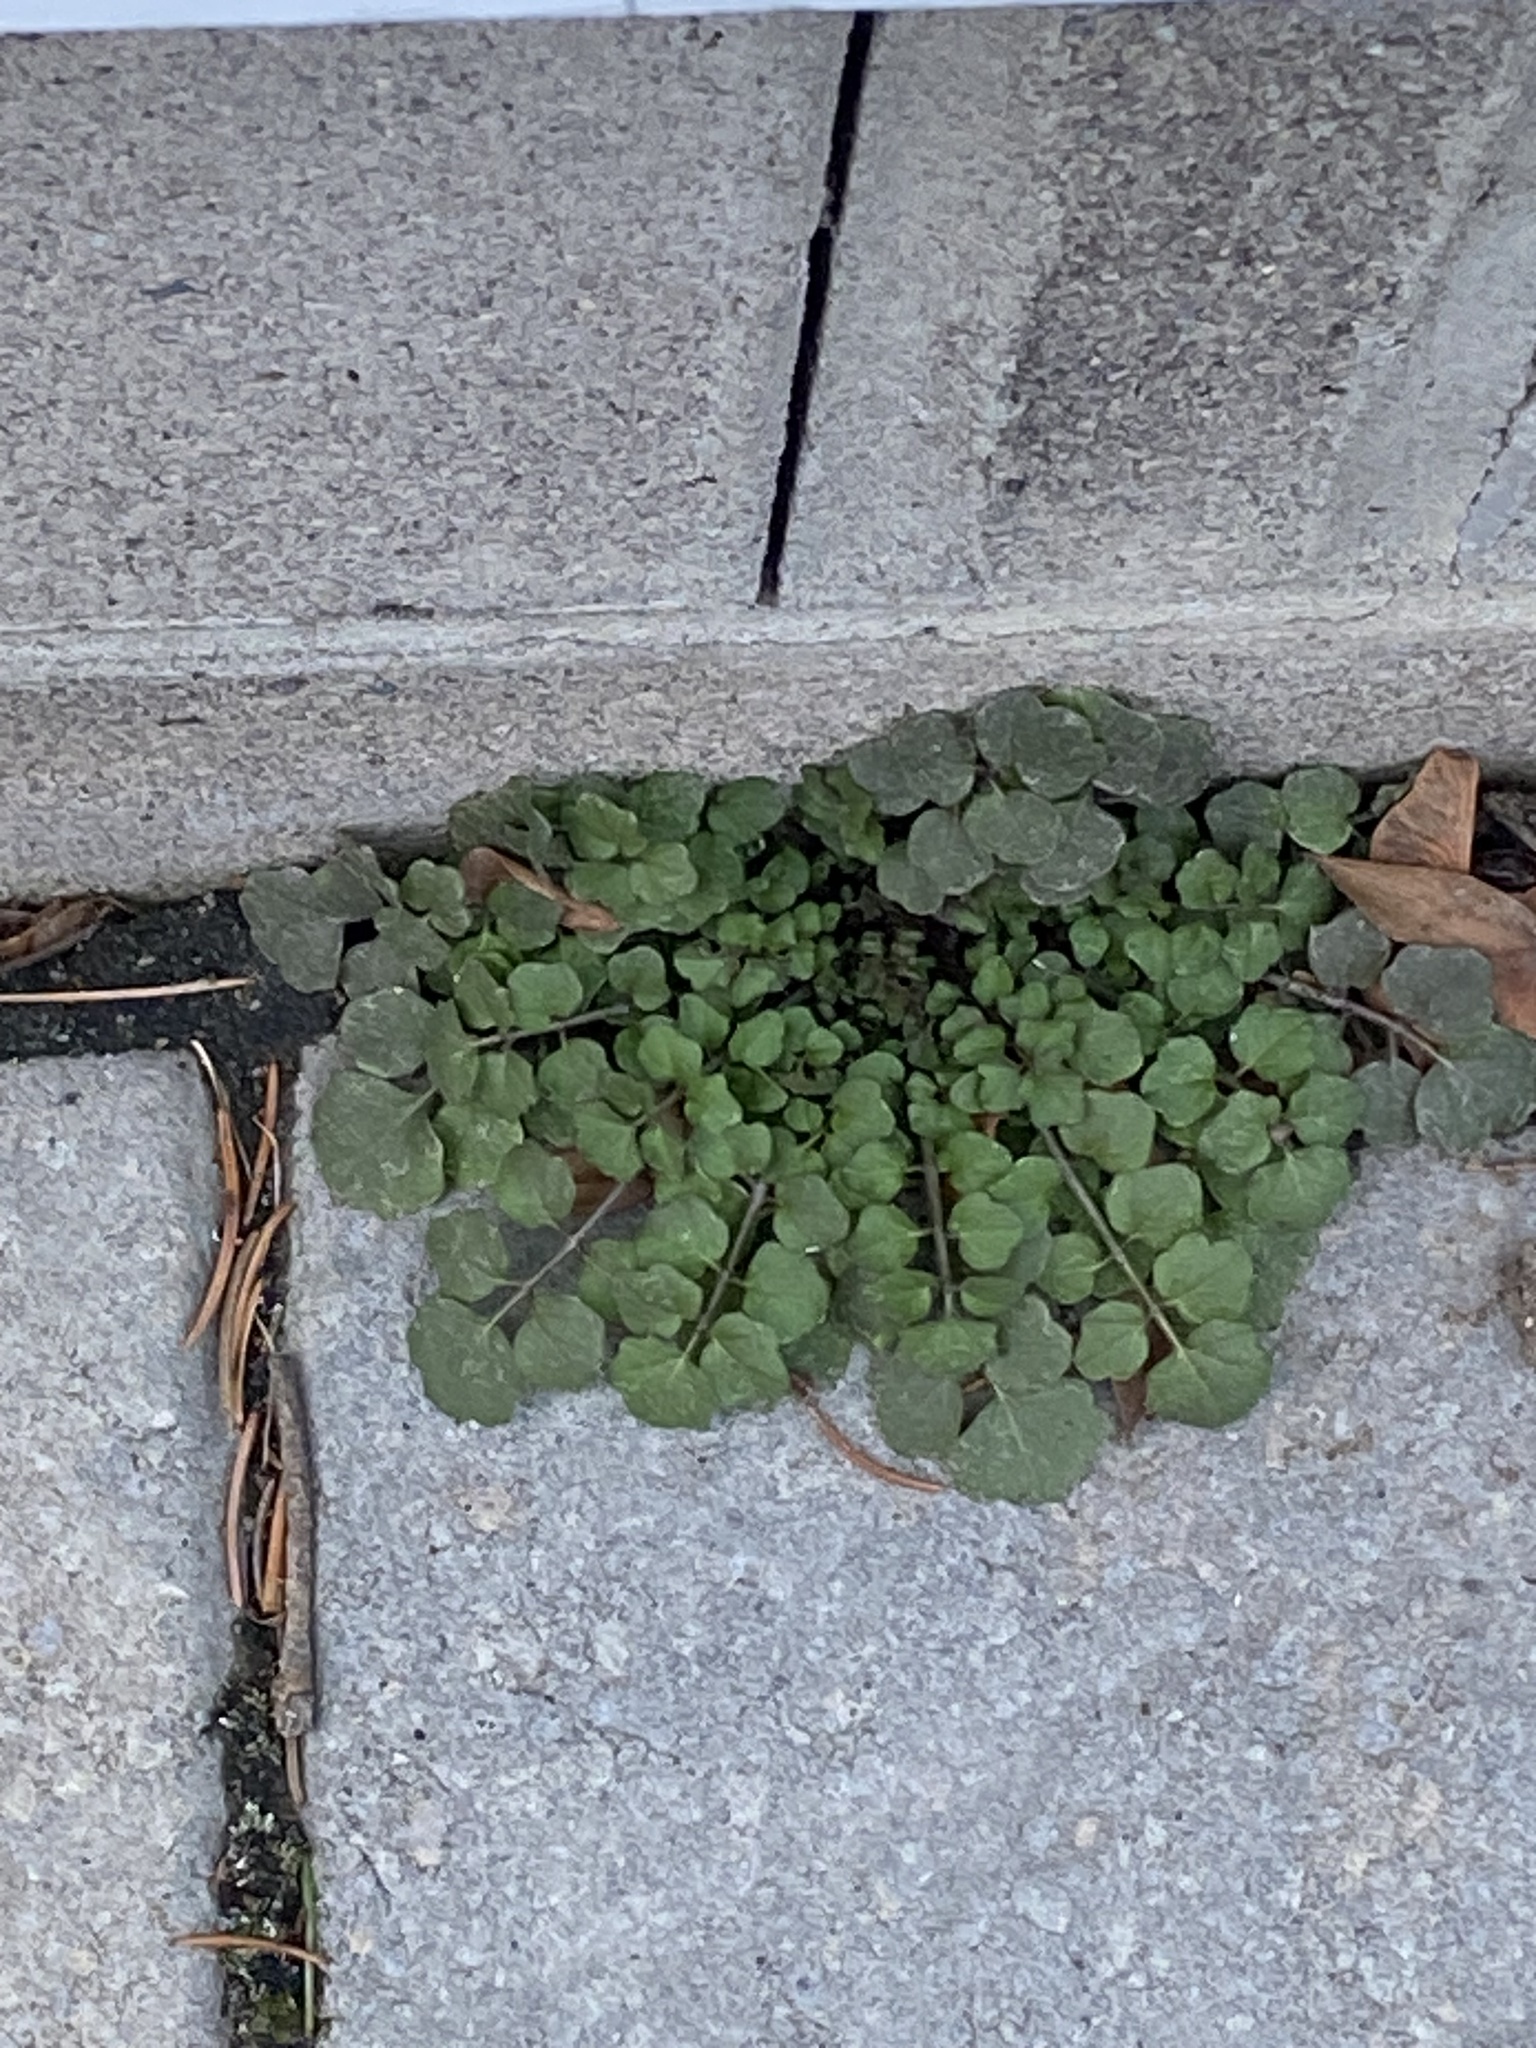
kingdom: Plantae
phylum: Tracheophyta
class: Magnoliopsida
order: Brassicales
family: Brassicaceae
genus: Cardamine
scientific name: Cardamine hirsuta
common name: Hairy bittercress
